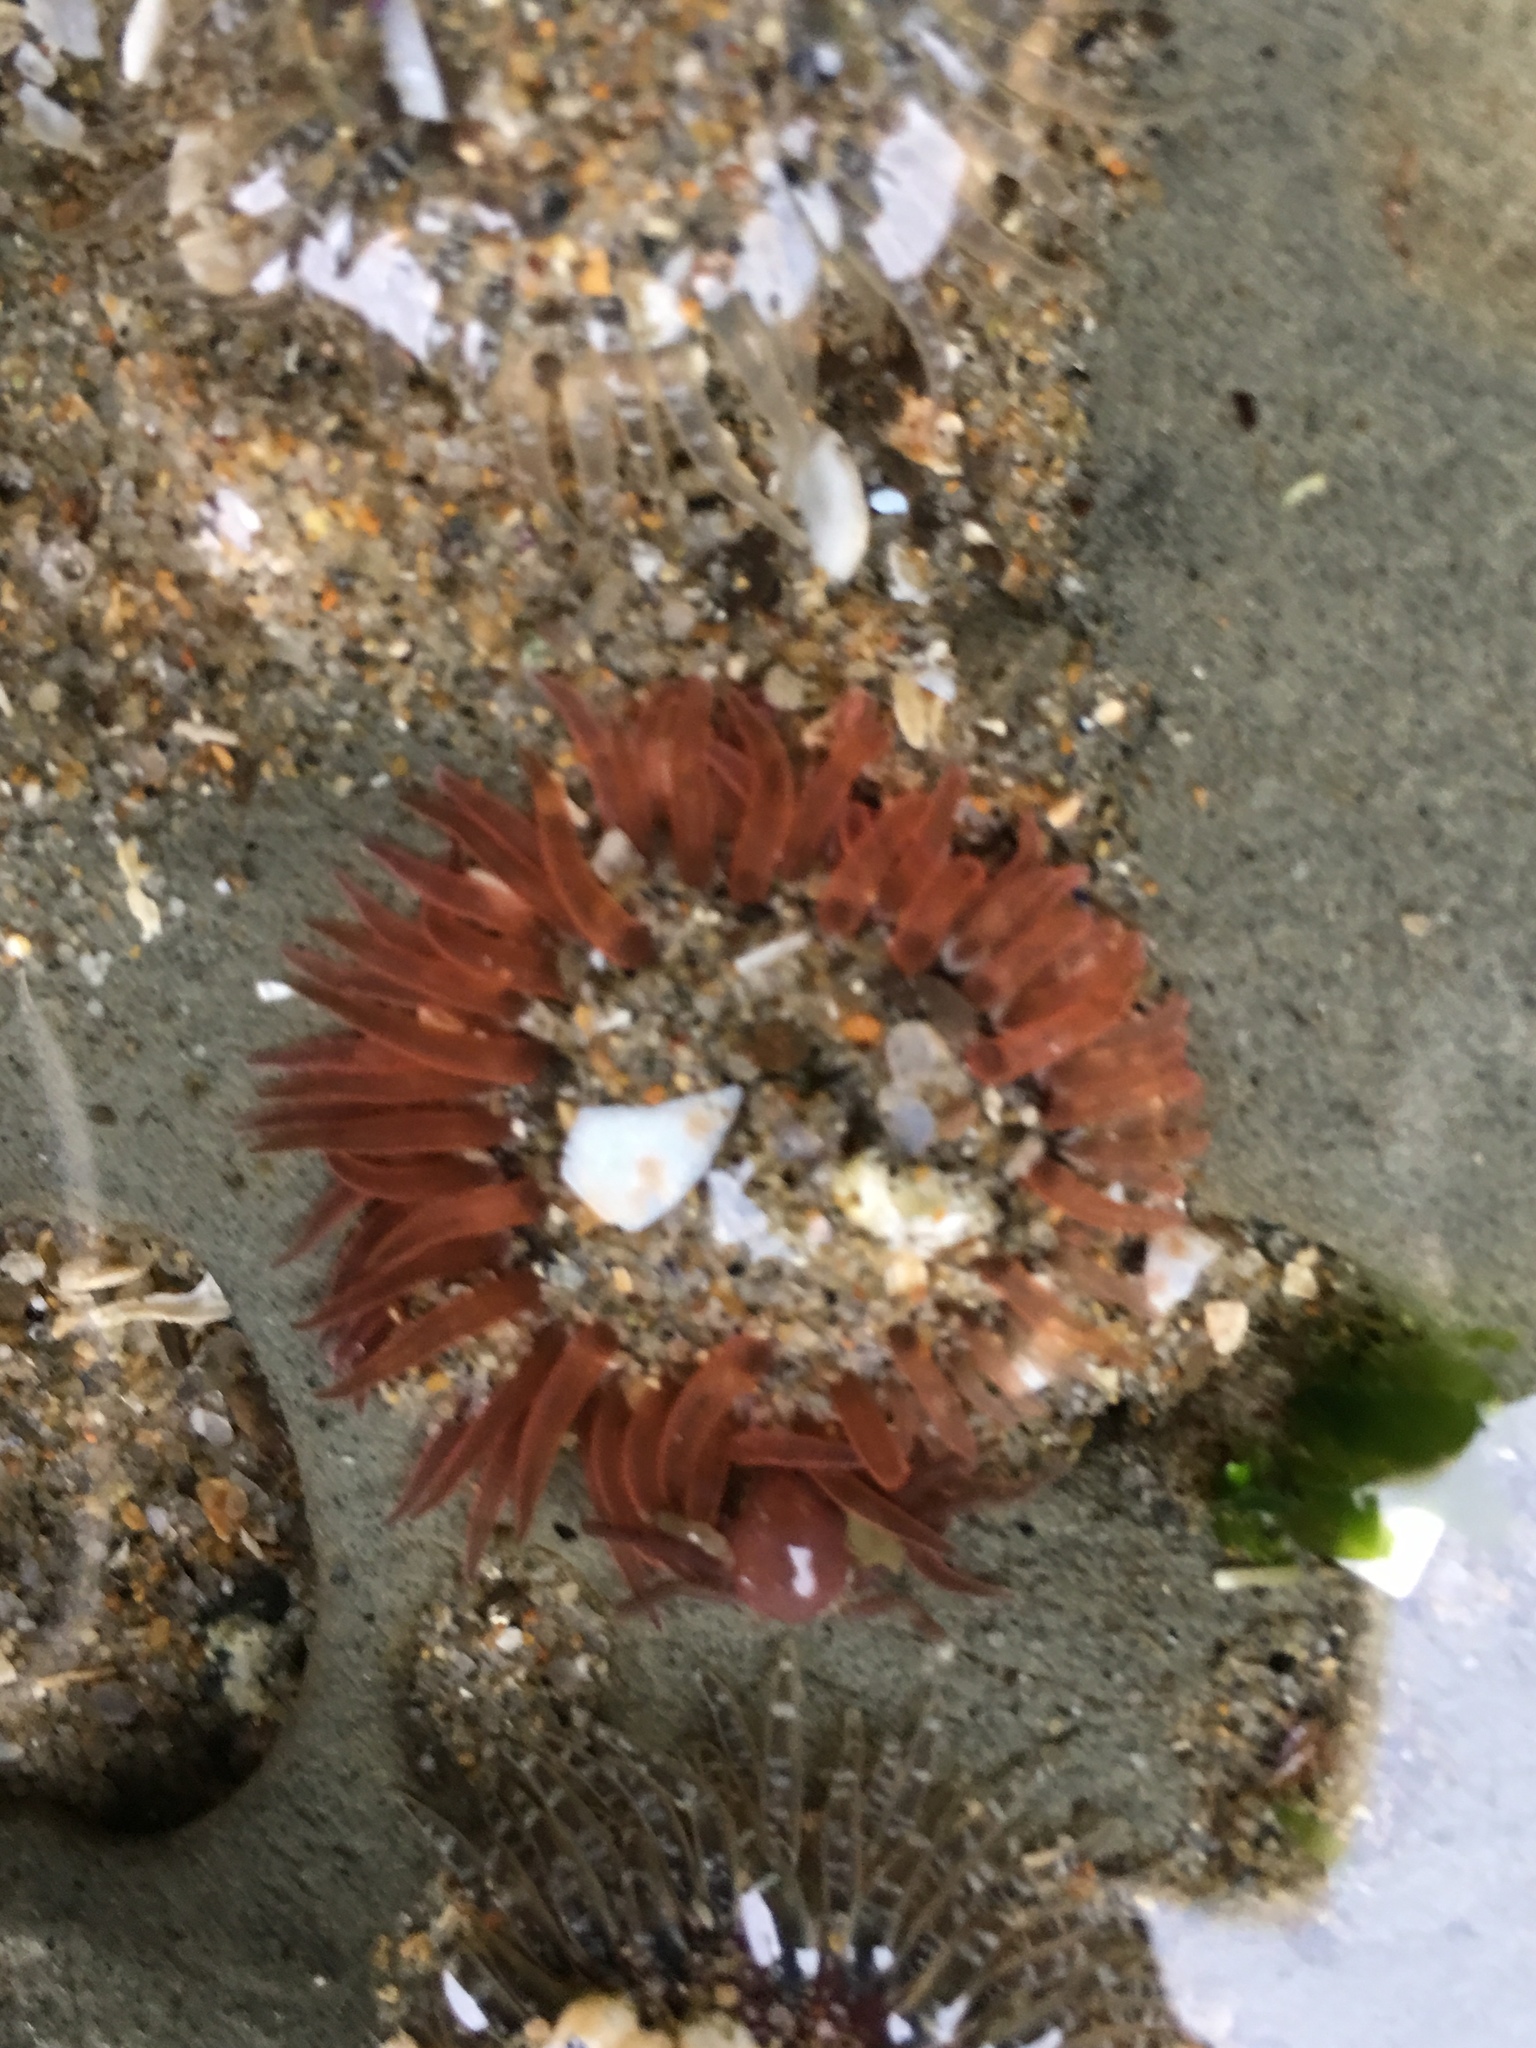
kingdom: Animalia
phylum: Cnidaria
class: Anthozoa
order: Actiniaria
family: Actiniidae
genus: Anthopleura
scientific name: Anthopleura artemisia
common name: Buried sea anemone
